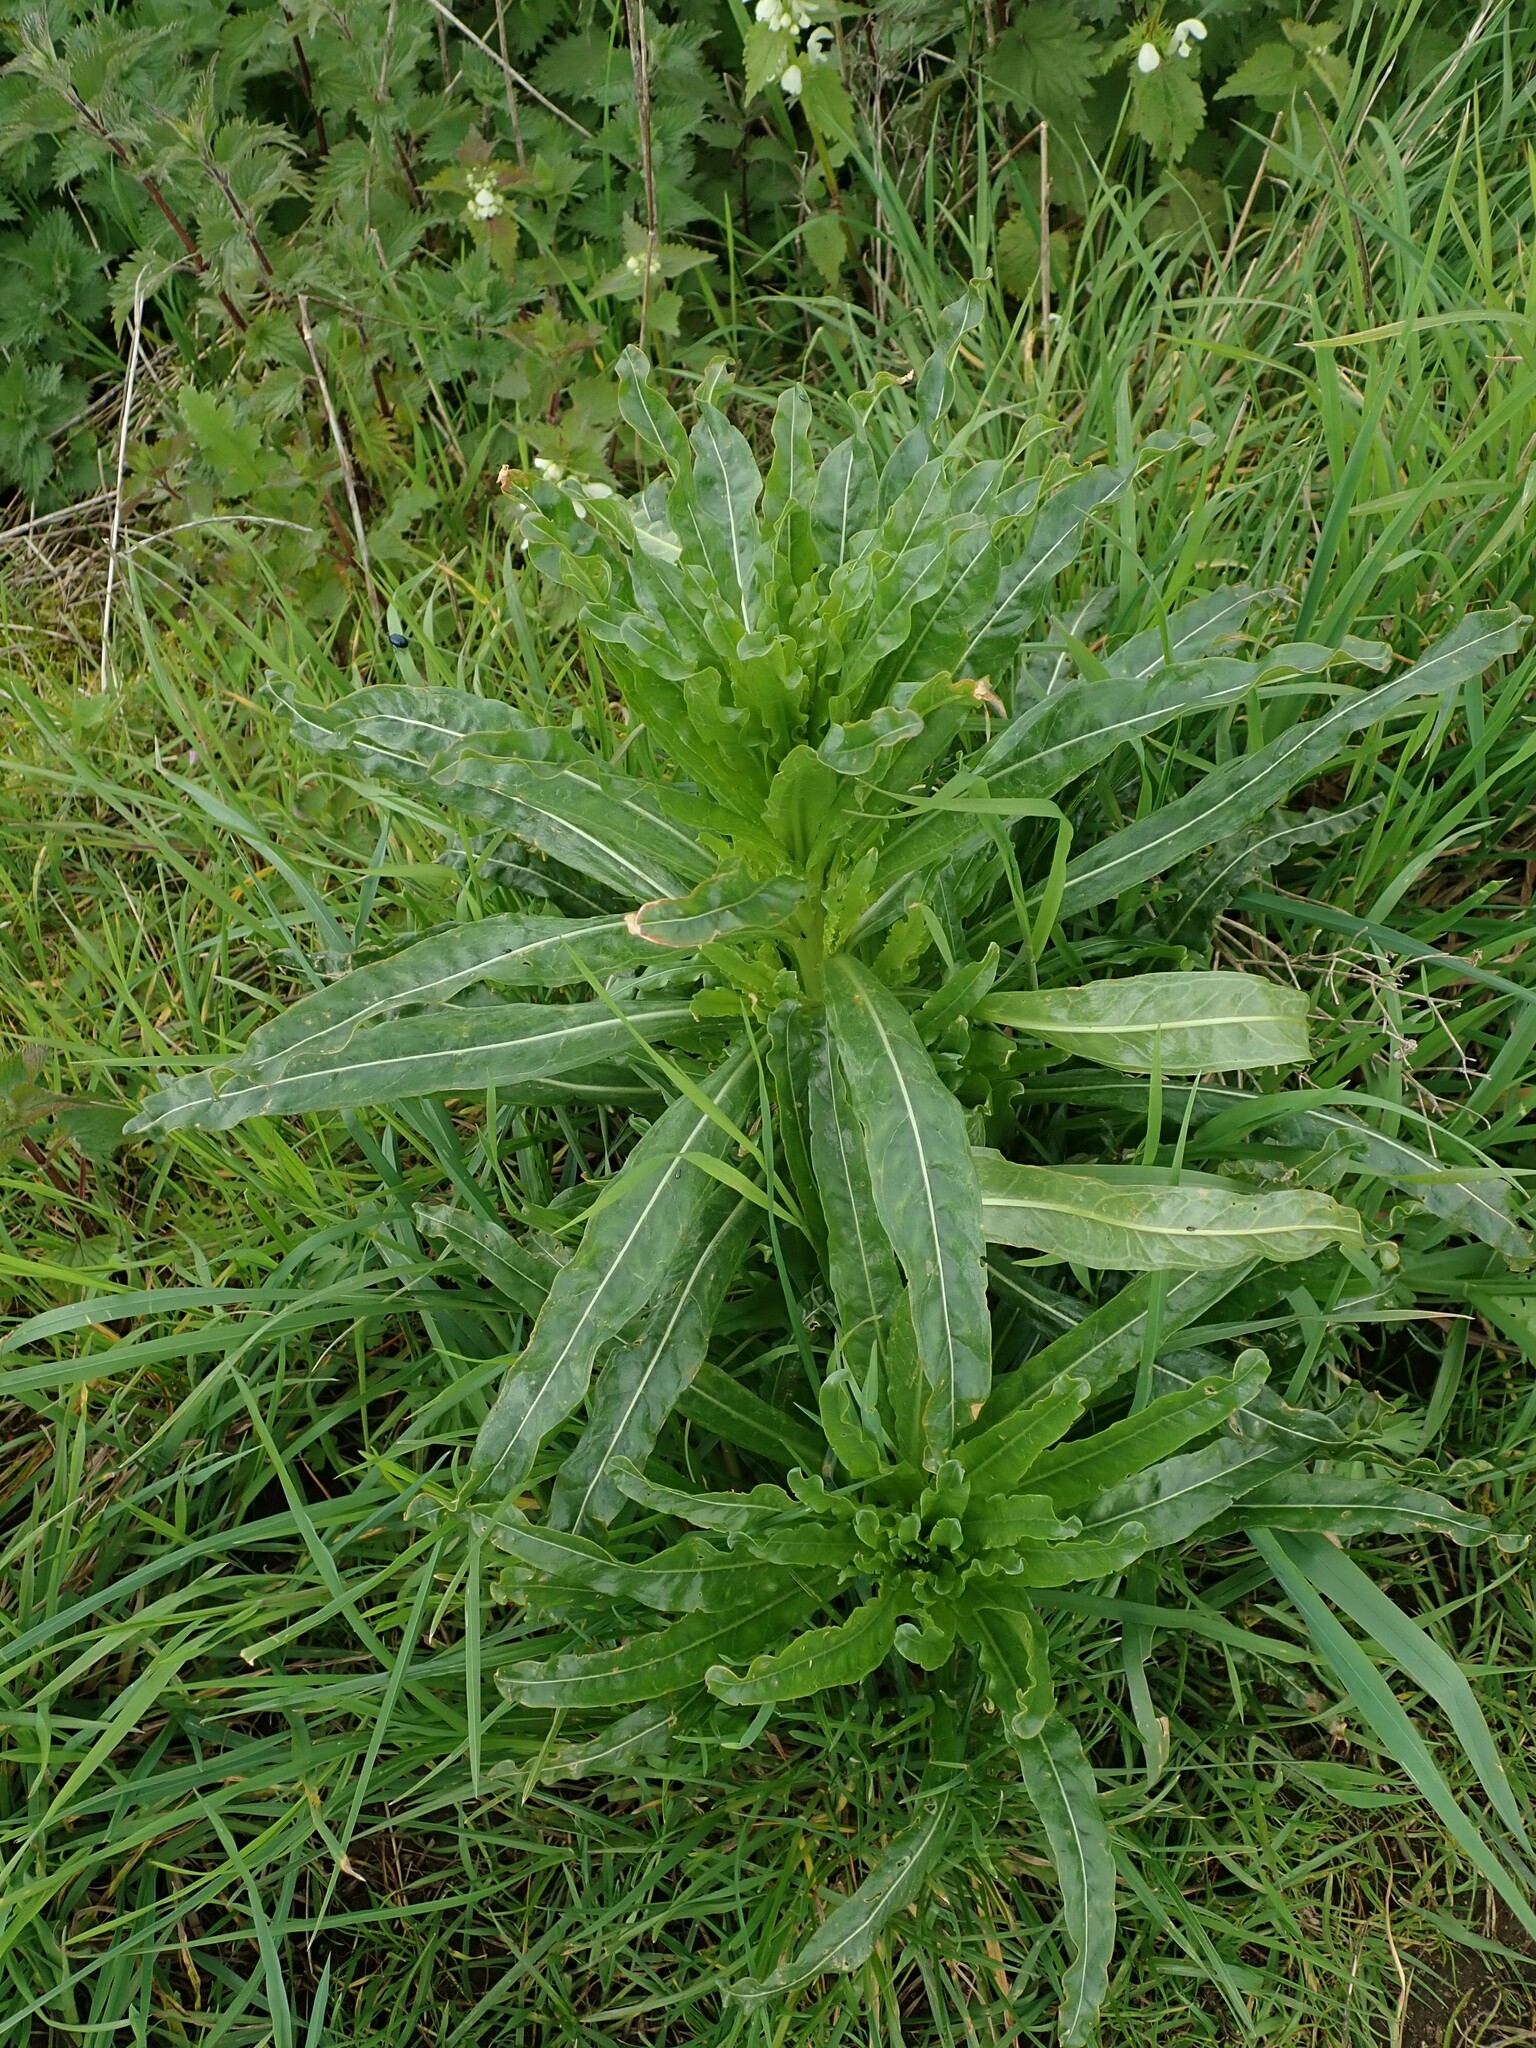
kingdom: Plantae
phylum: Tracheophyta
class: Magnoliopsida
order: Brassicales
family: Resedaceae
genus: Reseda
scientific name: Reseda luteola
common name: Weld
